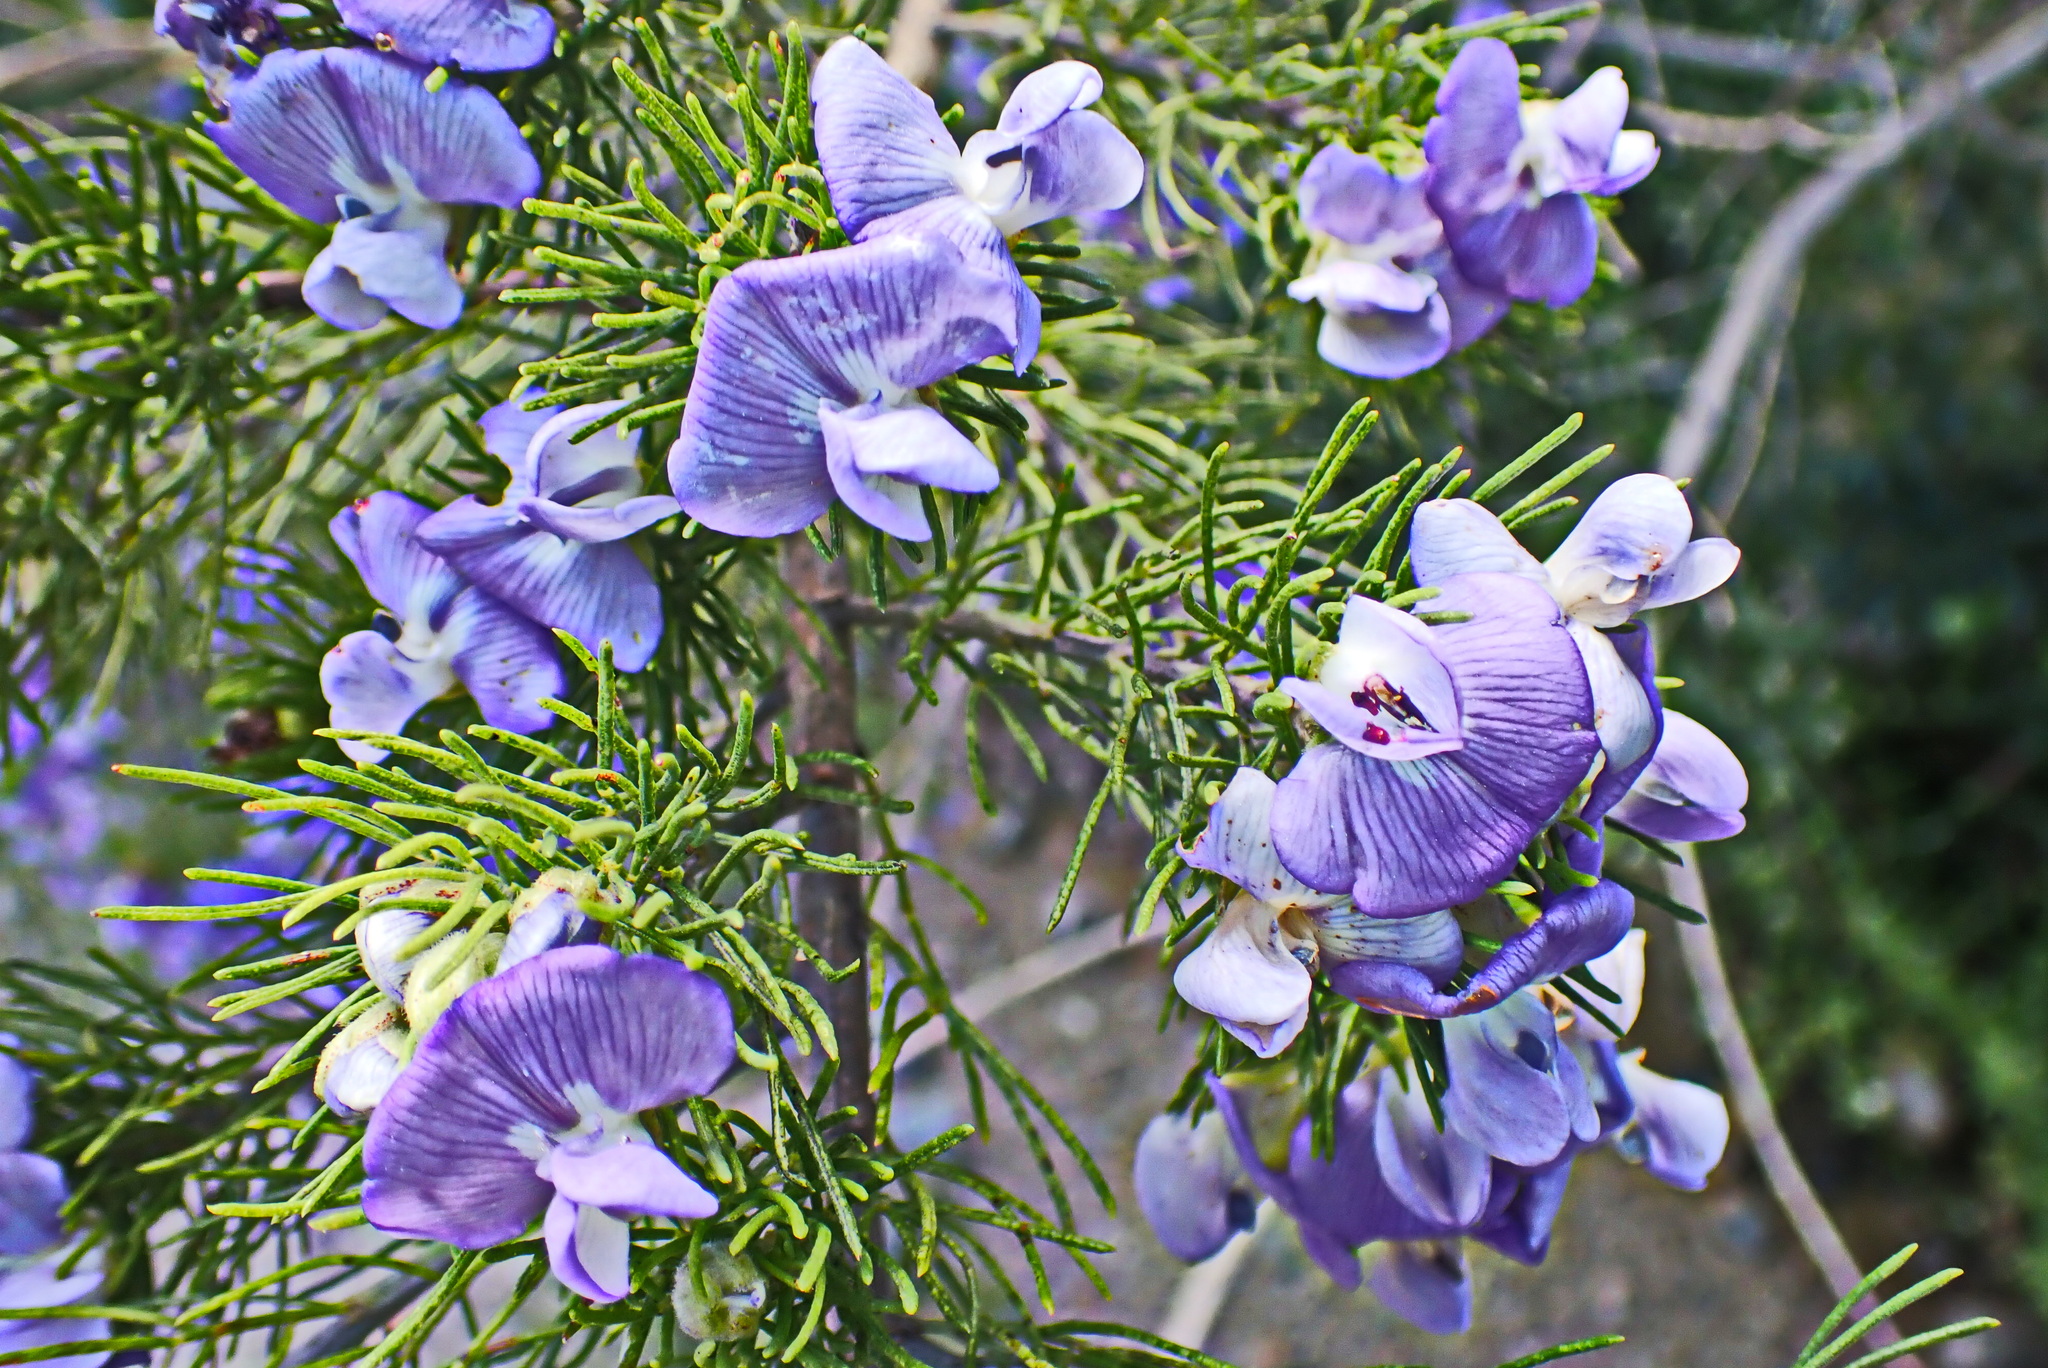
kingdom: Plantae
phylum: Tracheophyta
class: Magnoliopsida
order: Fabales
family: Fabaceae
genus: Psoralea
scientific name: Psoralea speciosa
